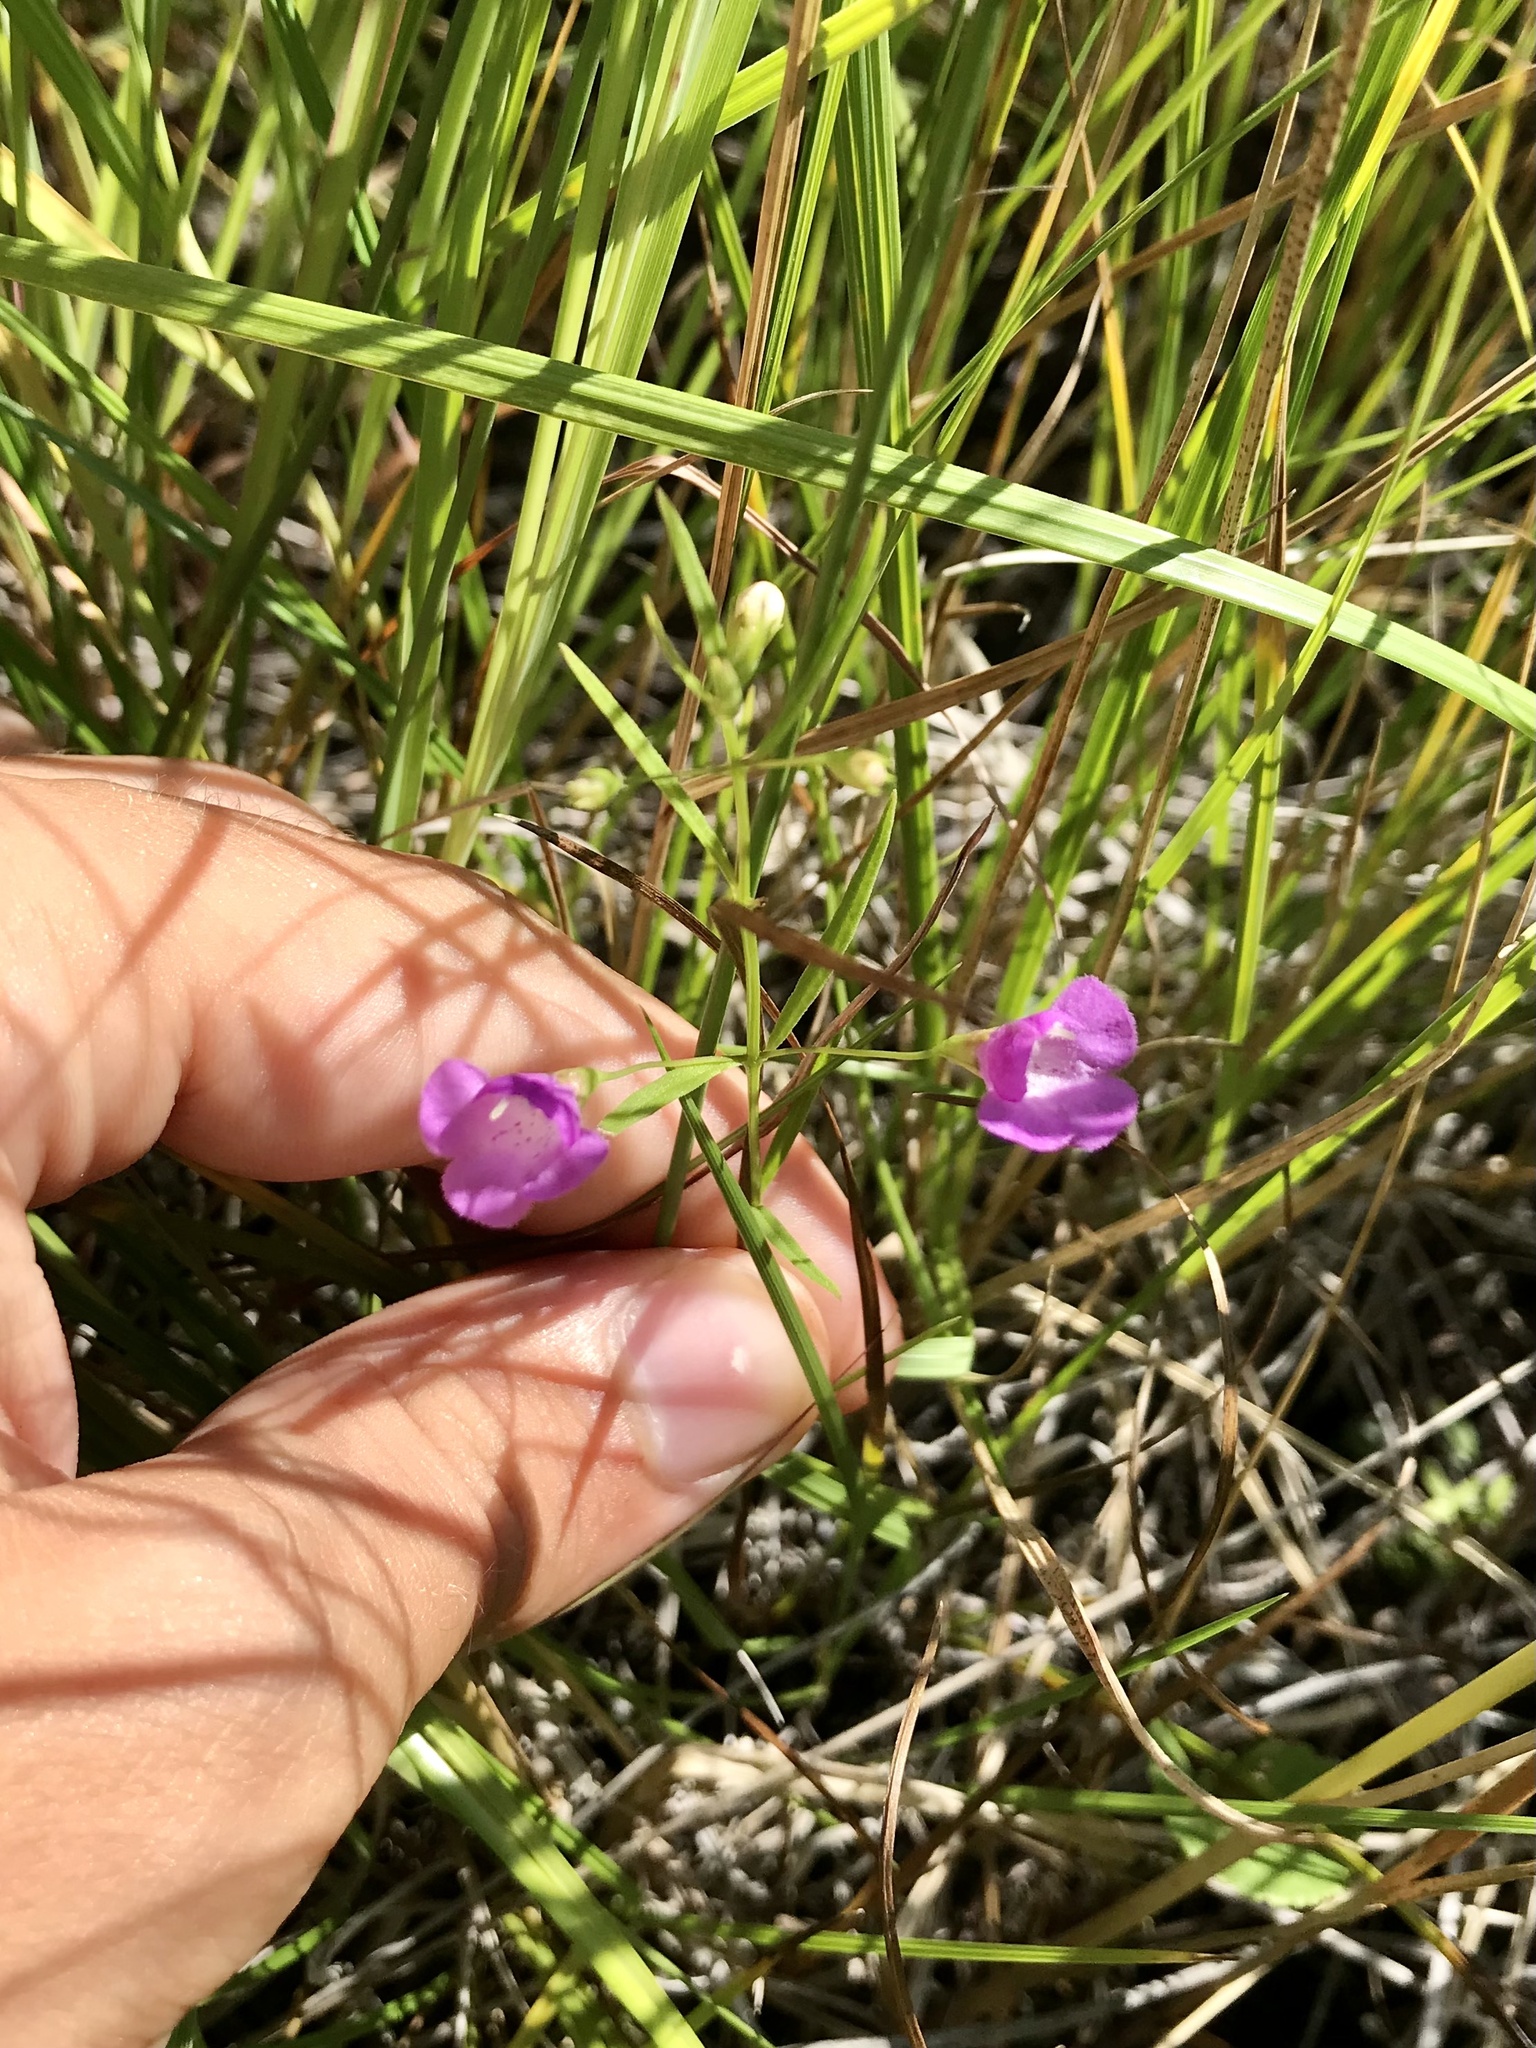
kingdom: Plantae
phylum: Tracheophyta
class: Magnoliopsida
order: Lamiales
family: Orobanchaceae
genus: Agalinis
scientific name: Agalinis tenuifolia
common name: Slender agalinis
